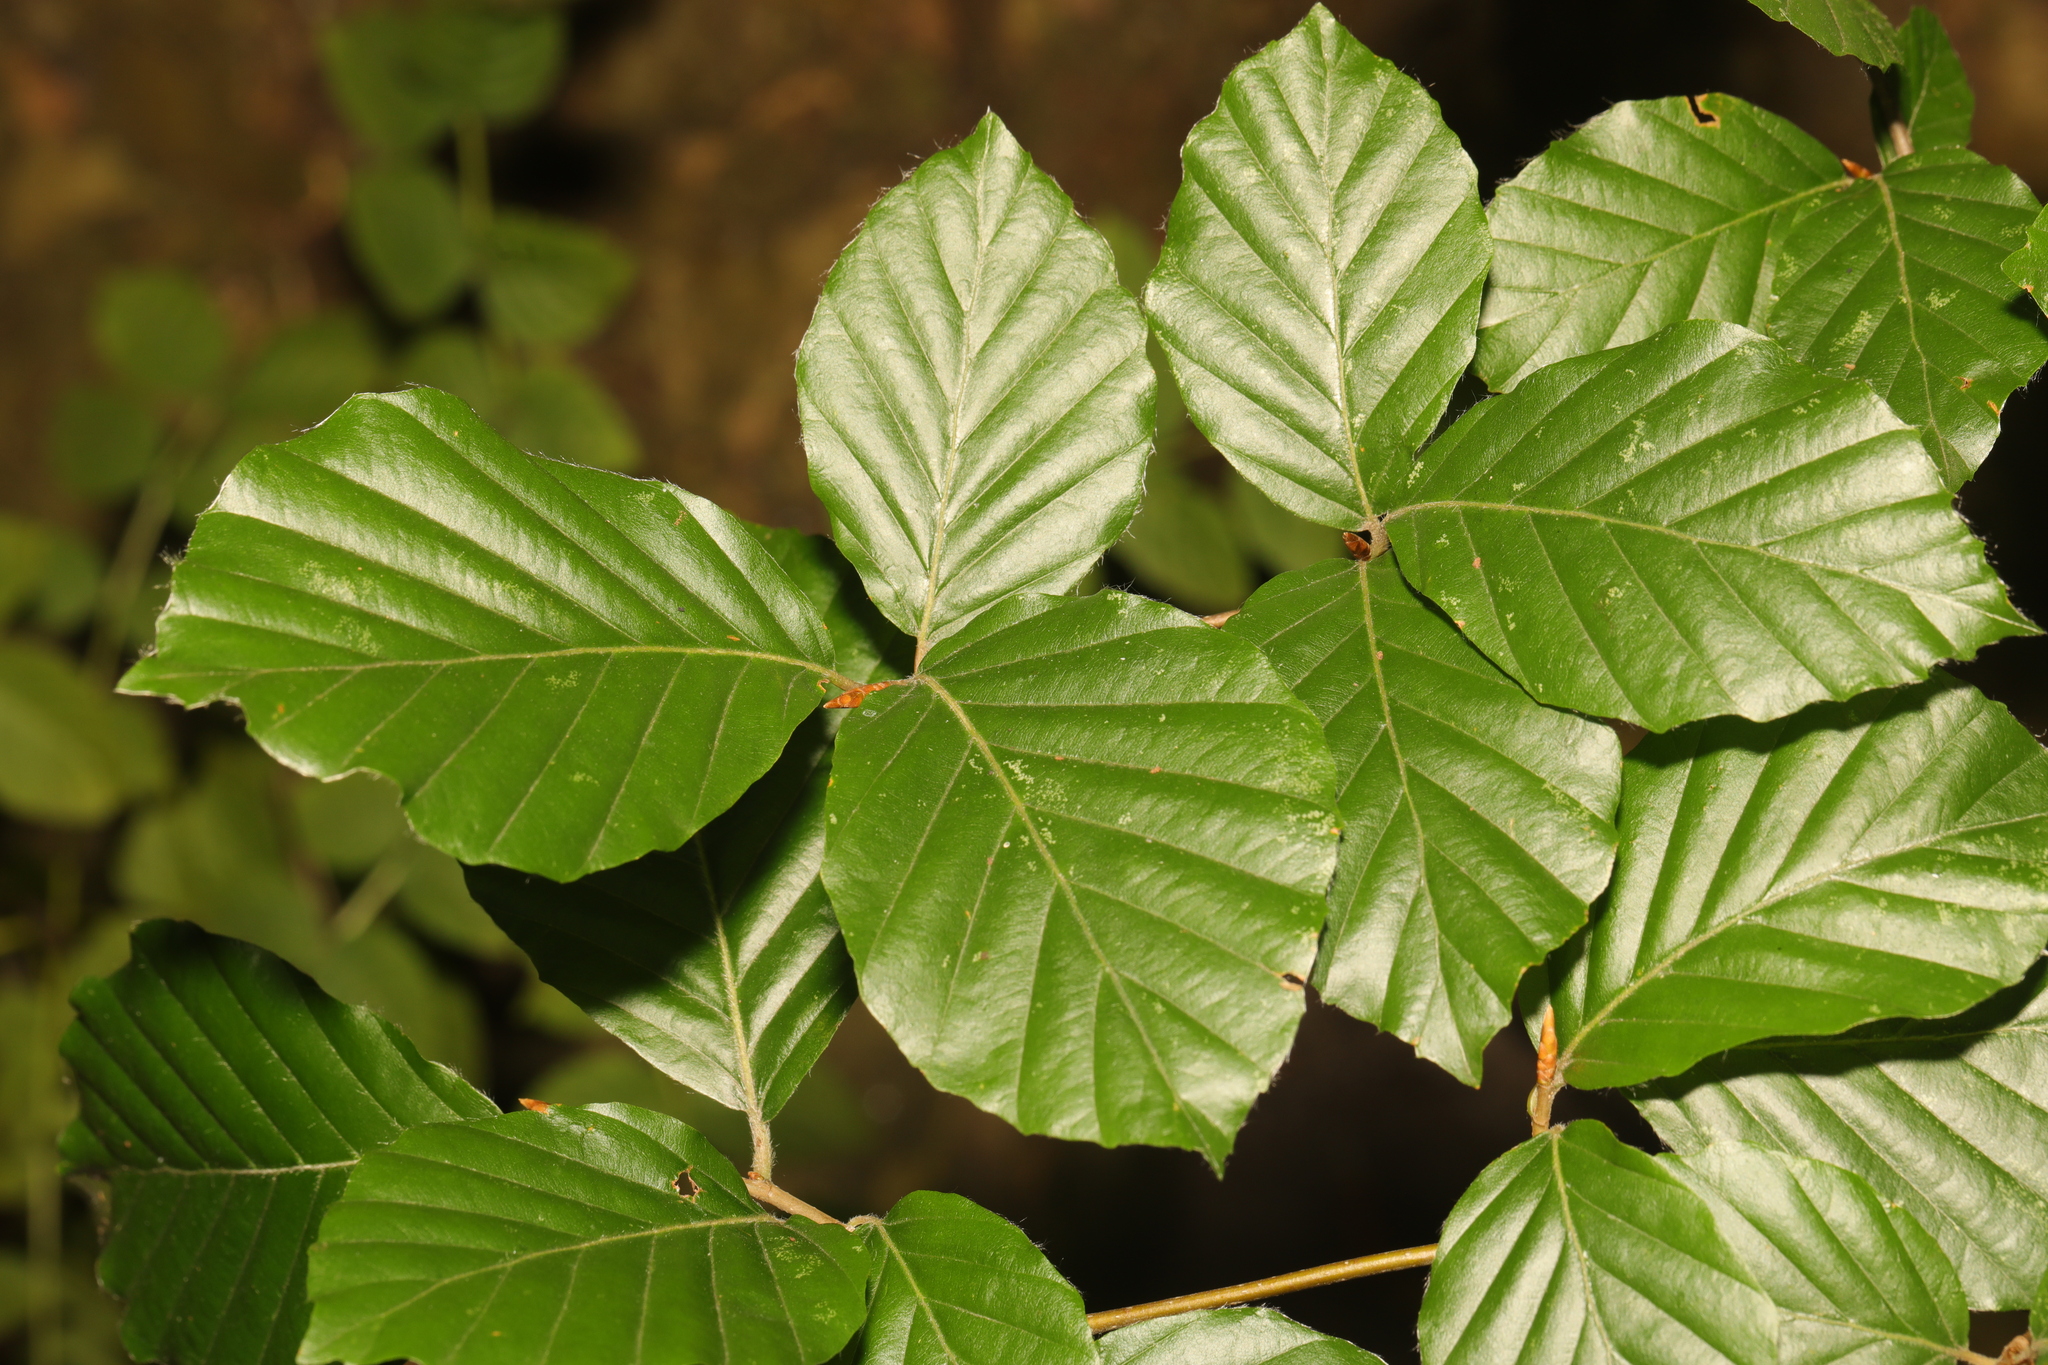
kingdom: Plantae
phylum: Tracheophyta
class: Magnoliopsida
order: Fagales
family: Fagaceae
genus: Fagus
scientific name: Fagus sylvatica
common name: Beech
